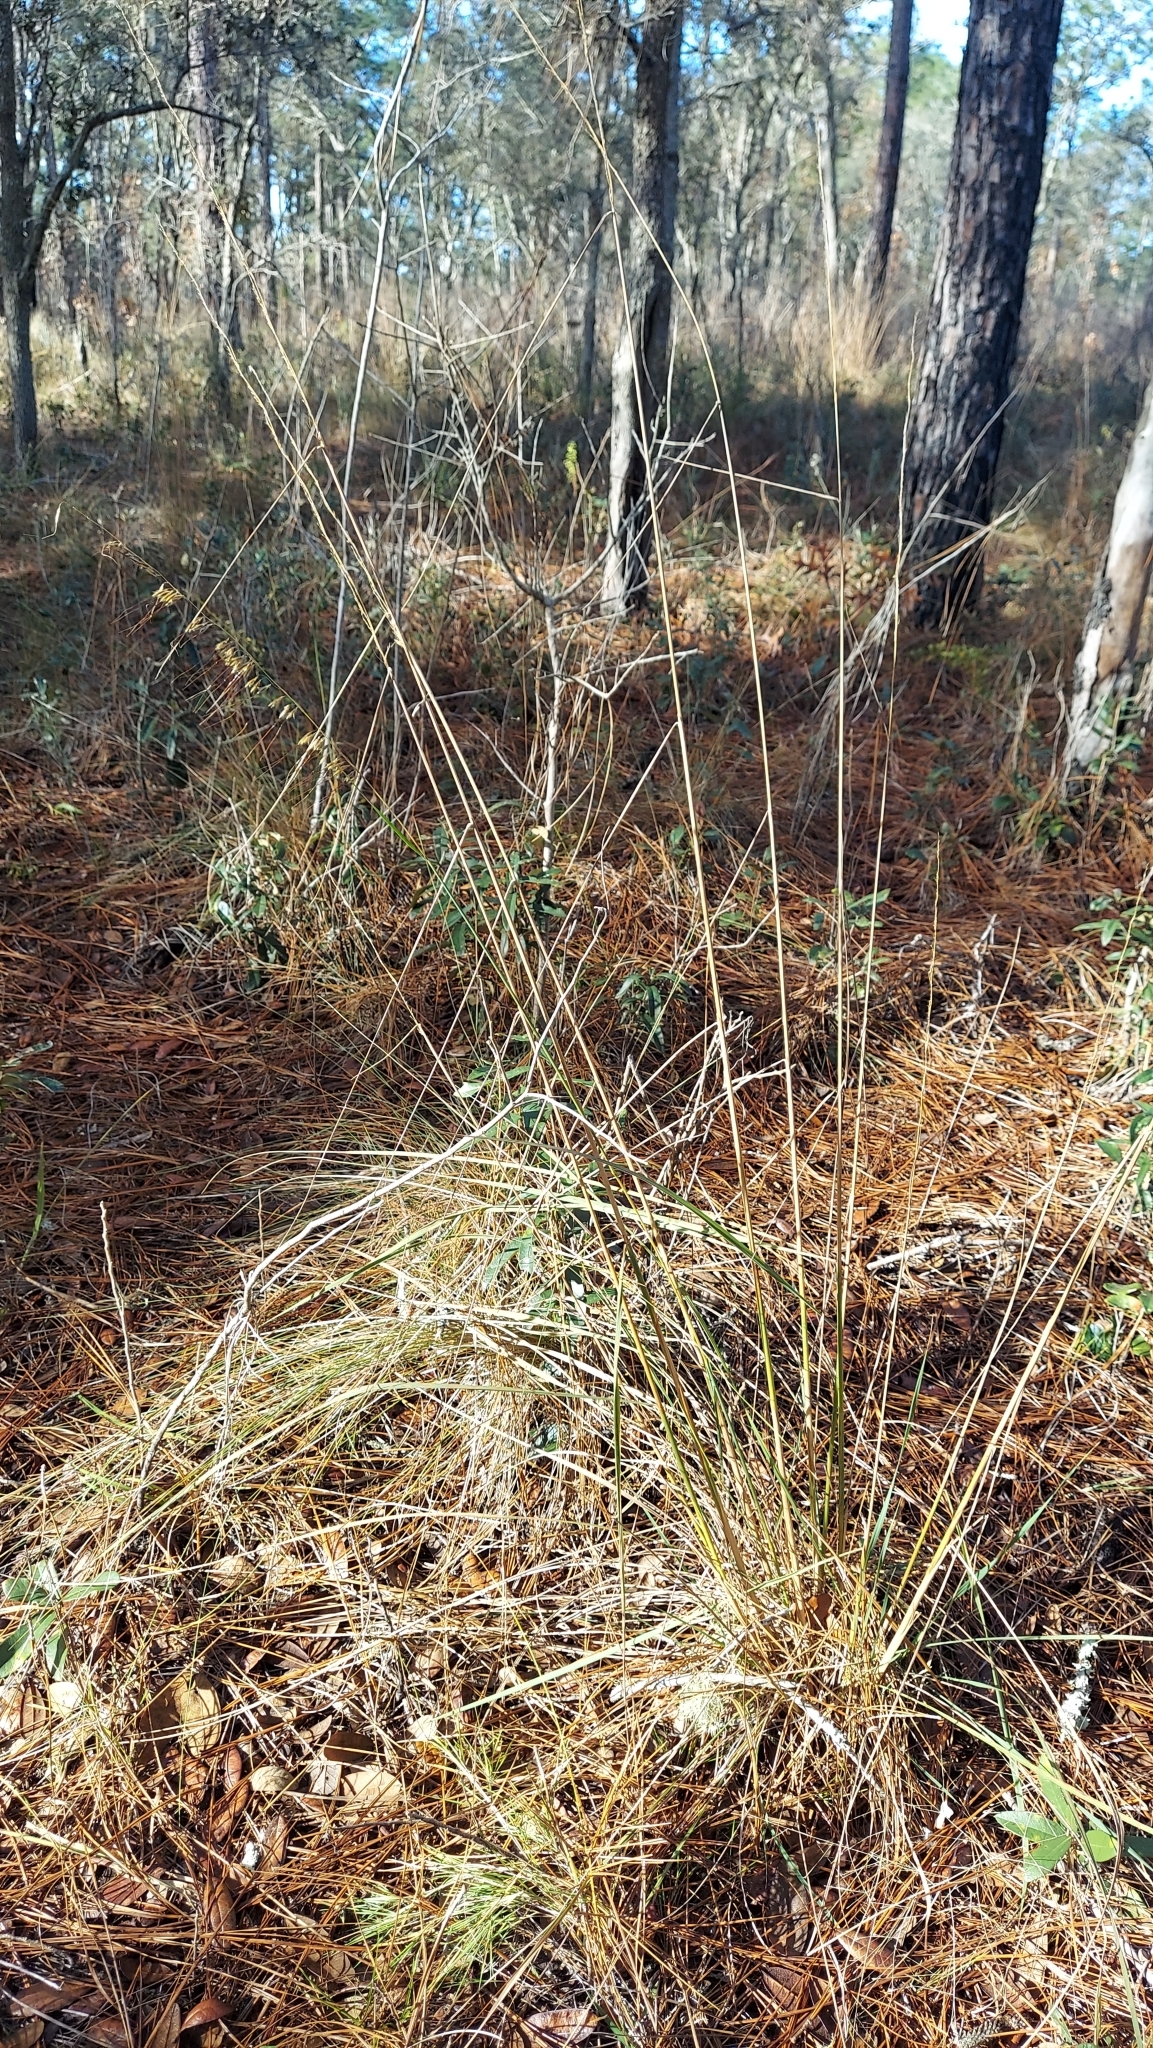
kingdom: Plantae
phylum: Tracheophyta
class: Liliopsida
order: Poales
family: Poaceae
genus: Sorghastrum
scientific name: Sorghastrum secundum
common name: Lopsided indian grass
